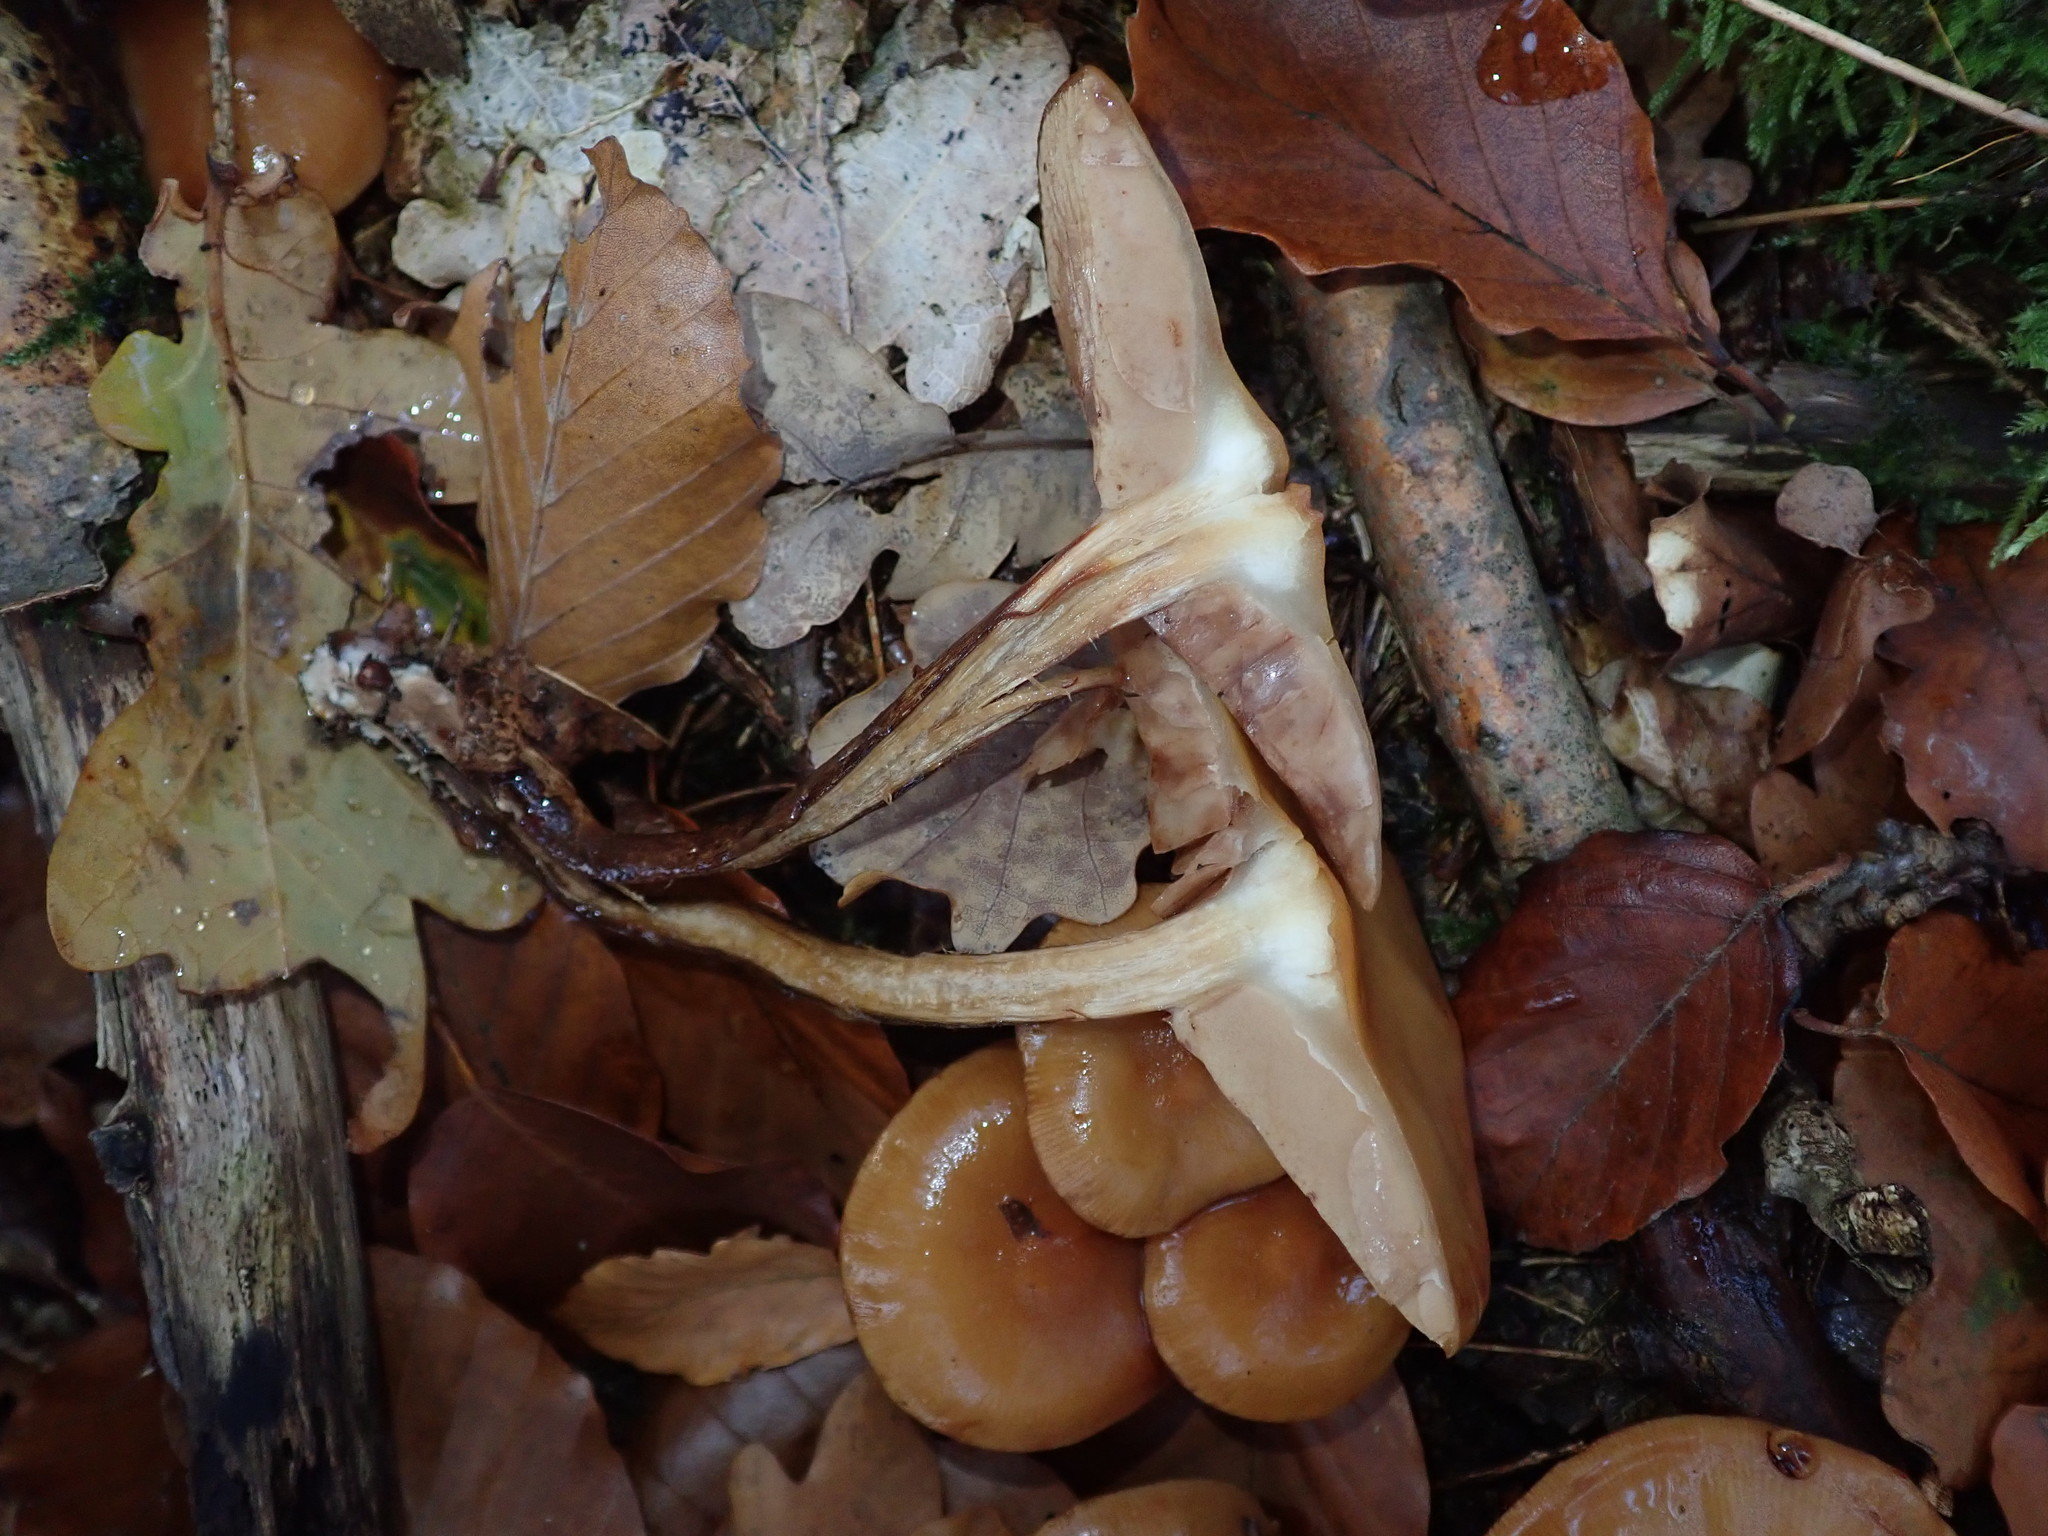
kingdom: Fungi
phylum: Basidiomycota
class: Agaricomycetes
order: Agaricales
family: Strophariaceae
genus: Kuehneromyces
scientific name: Kuehneromyces mutabilis
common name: Sheathed woodtuft
